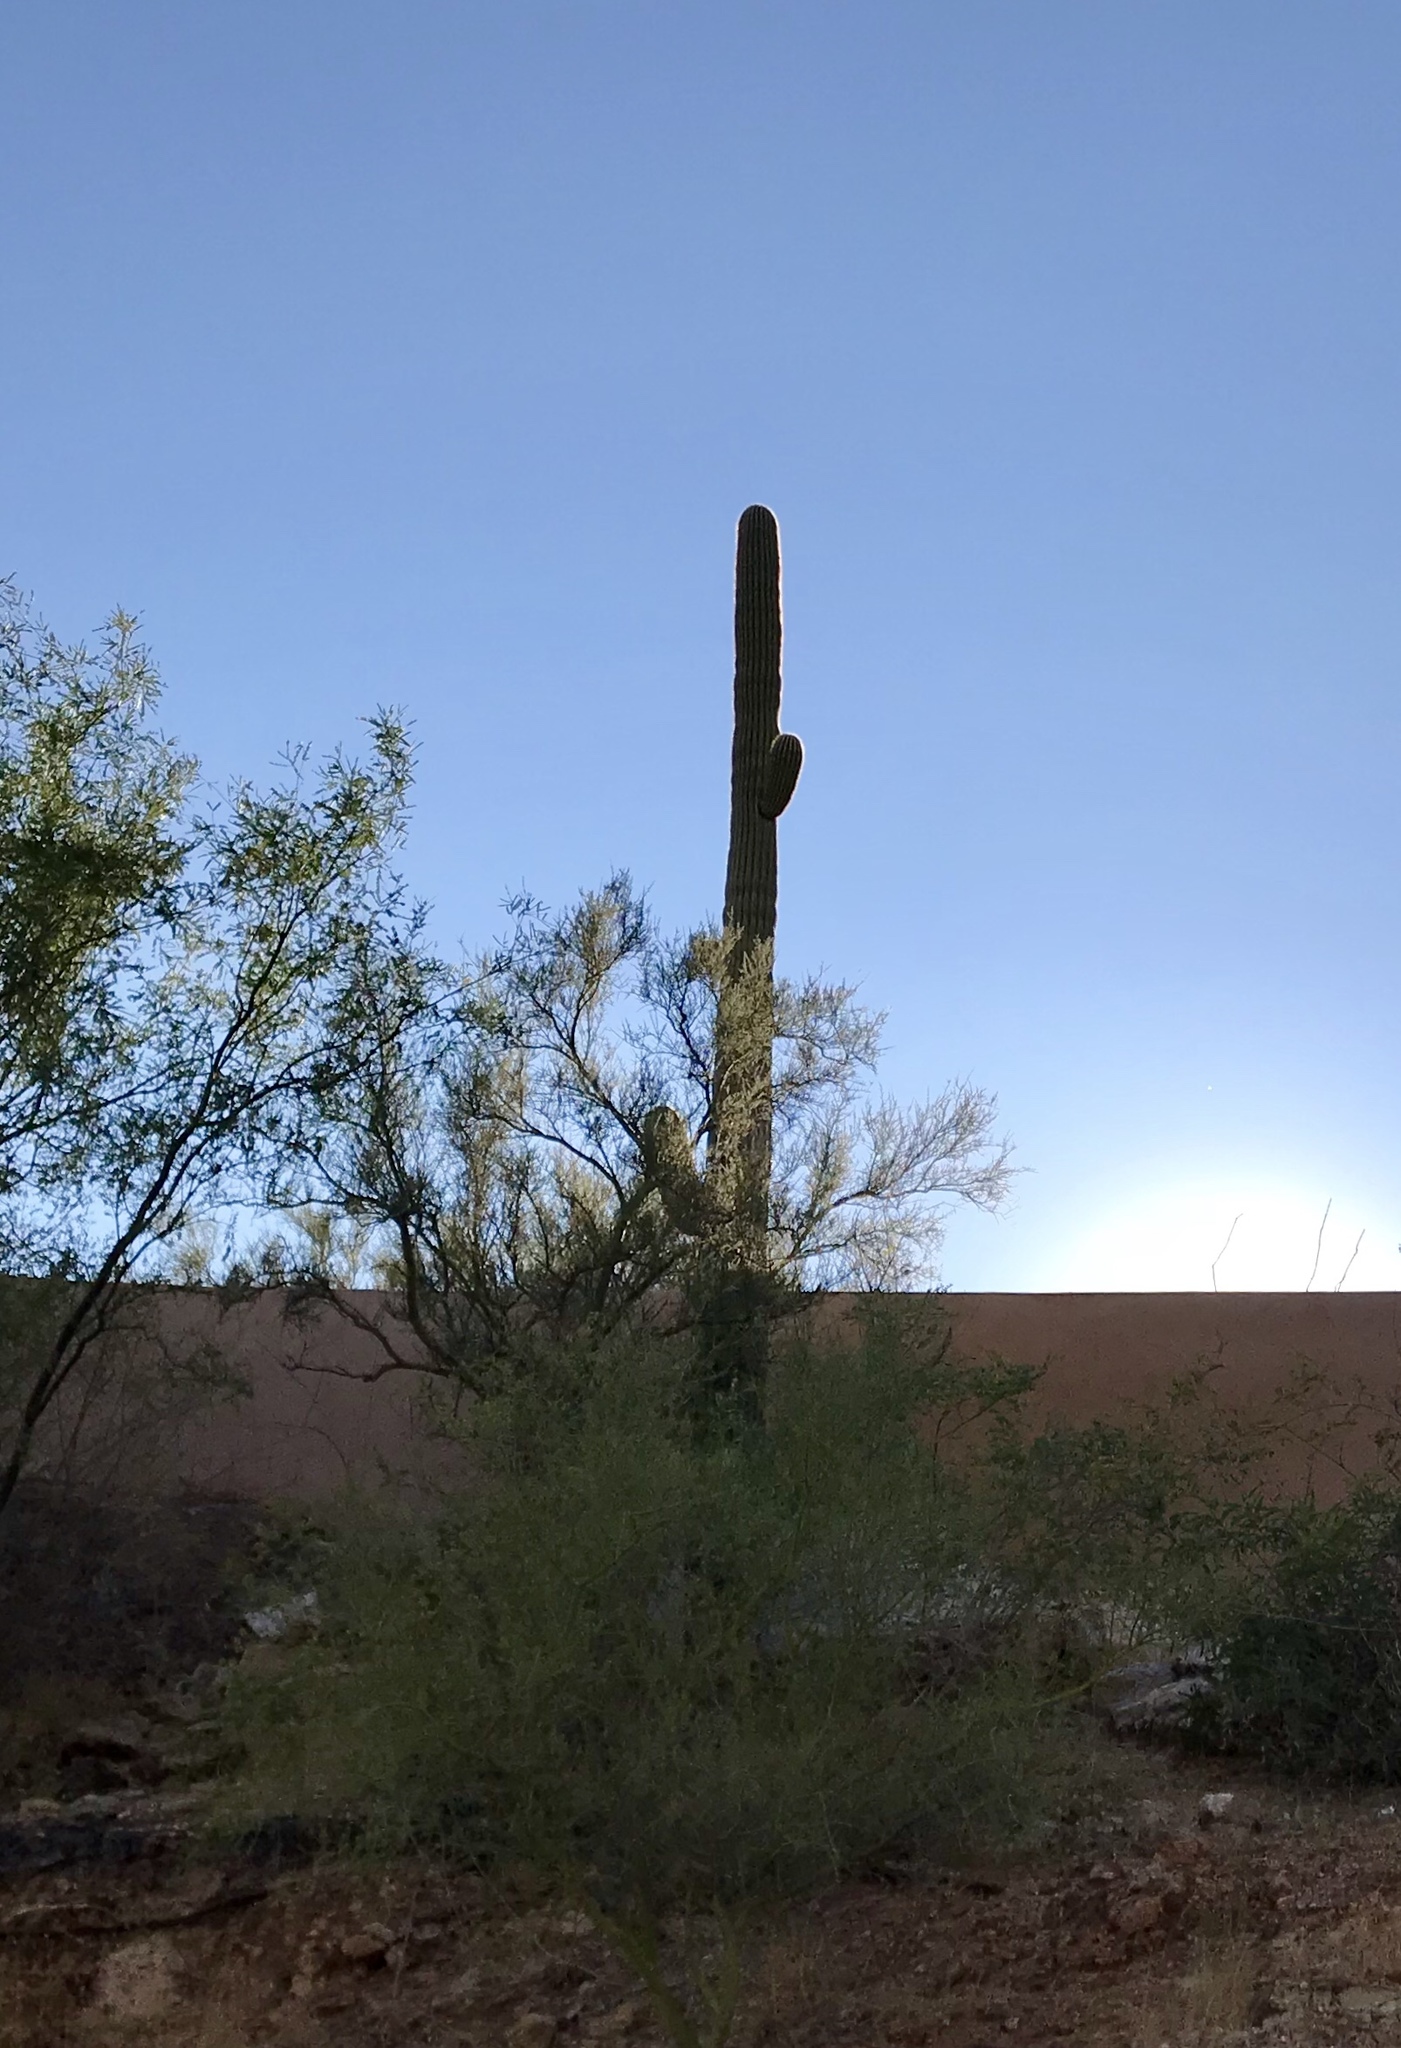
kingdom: Plantae
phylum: Tracheophyta
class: Magnoliopsida
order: Caryophyllales
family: Cactaceae
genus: Carnegiea
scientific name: Carnegiea gigantea
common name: Saguaro
